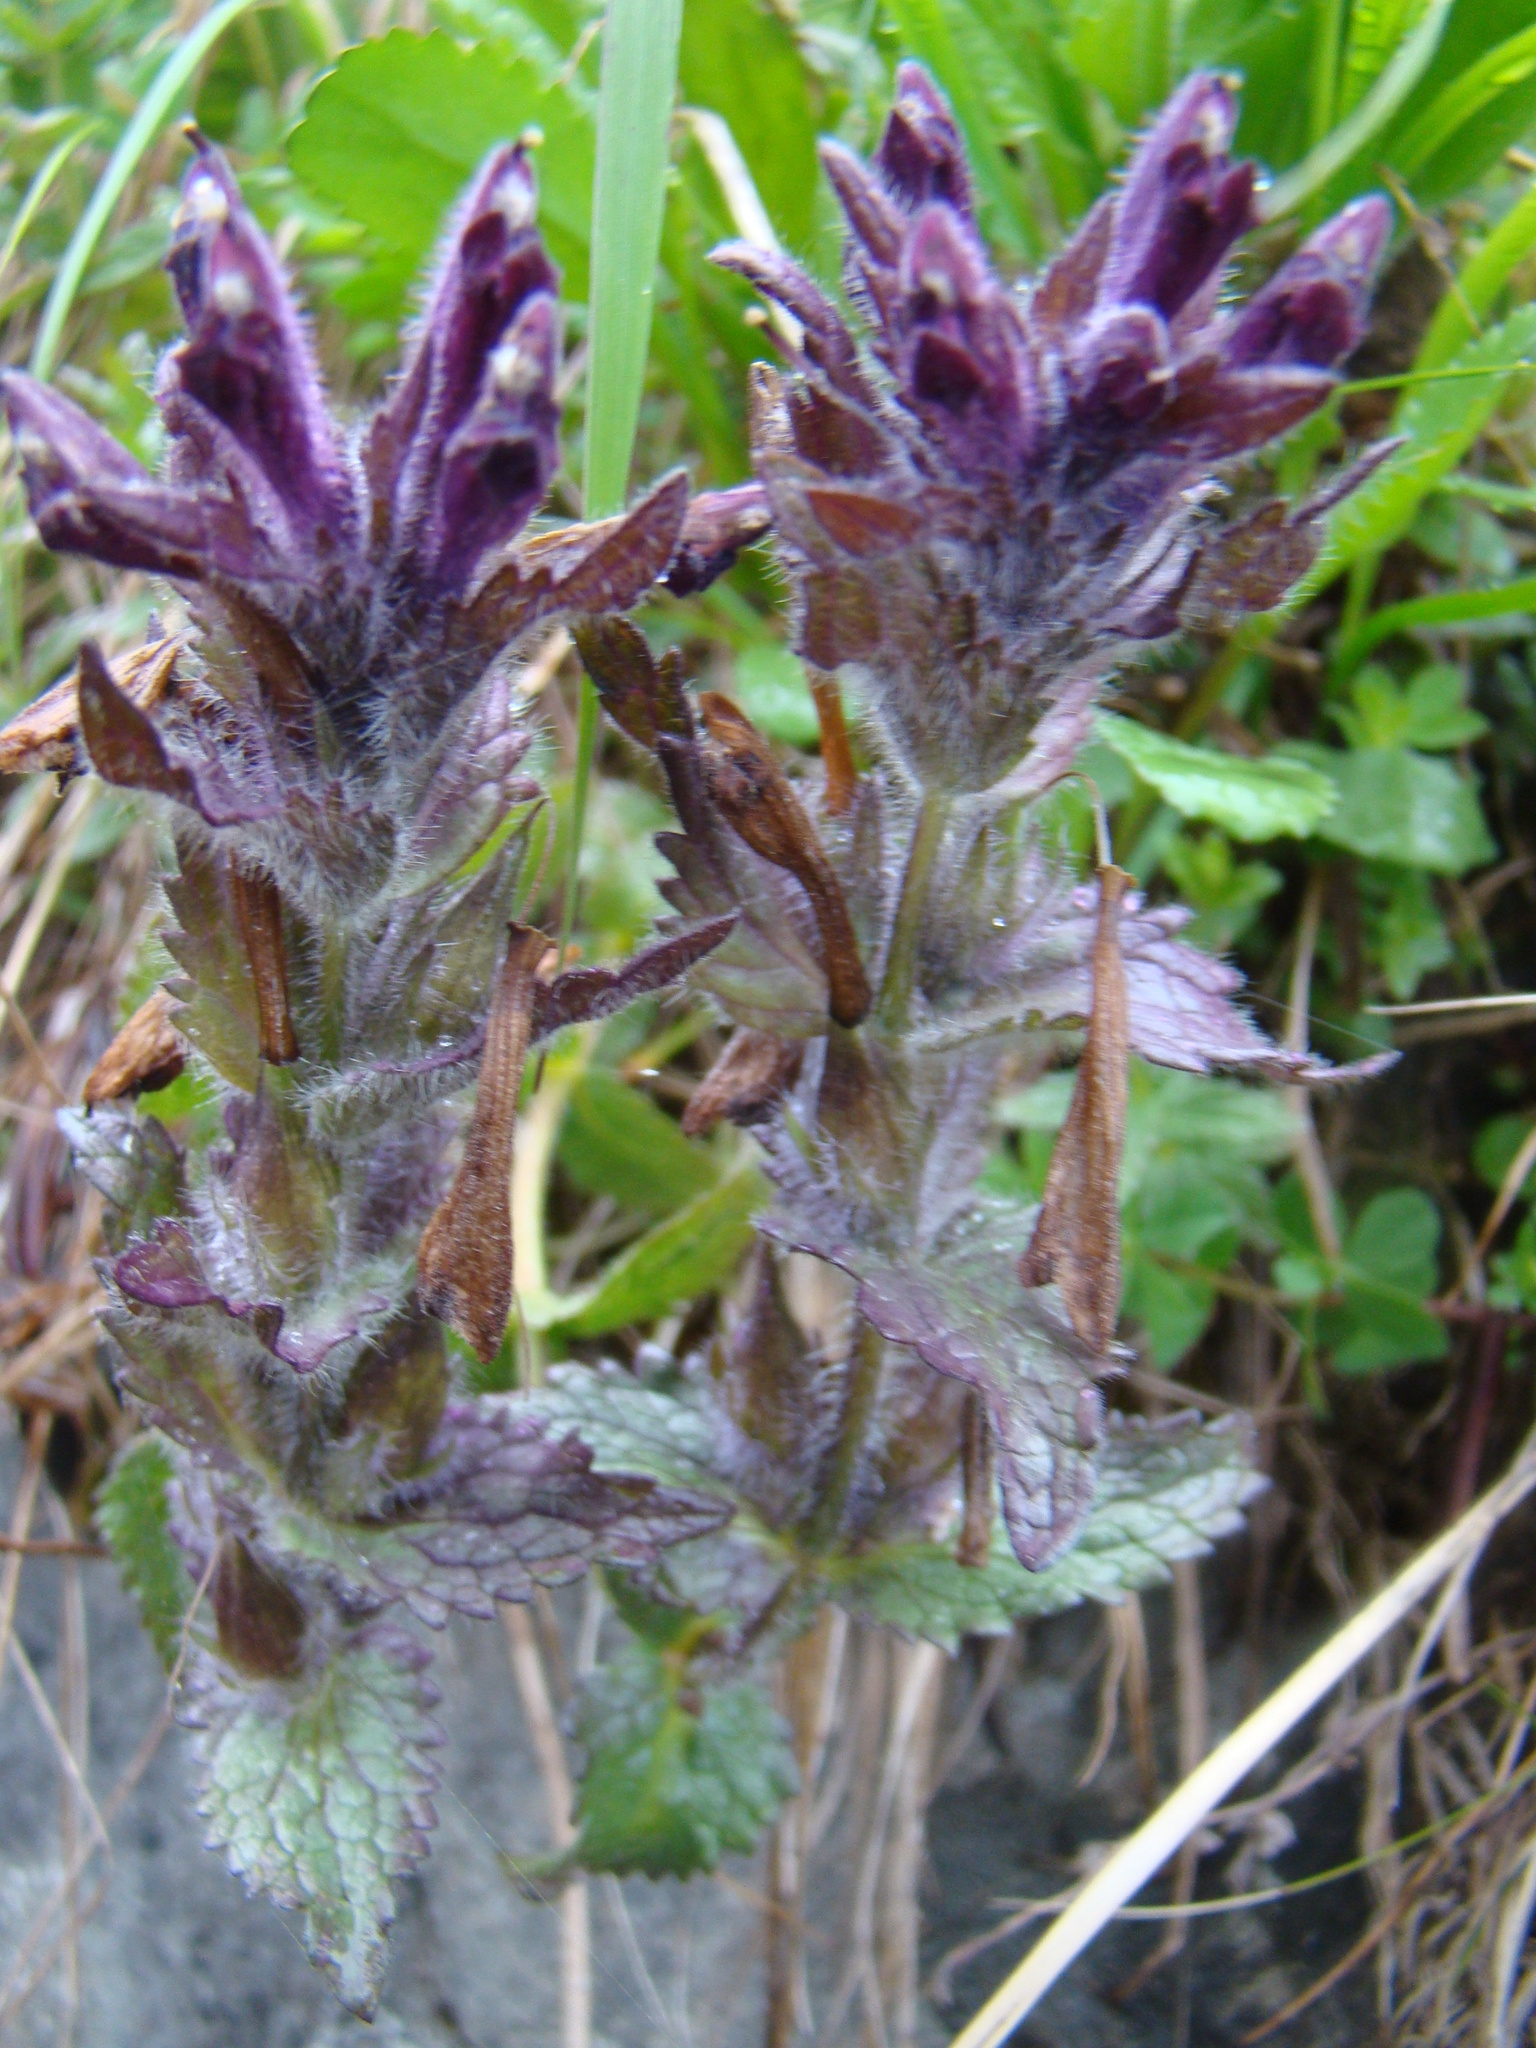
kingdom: Plantae
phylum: Tracheophyta
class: Magnoliopsida
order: Lamiales
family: Orobanchaceae
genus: Bartsia
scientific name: Bartsia alpina
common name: Alpine bartsia
